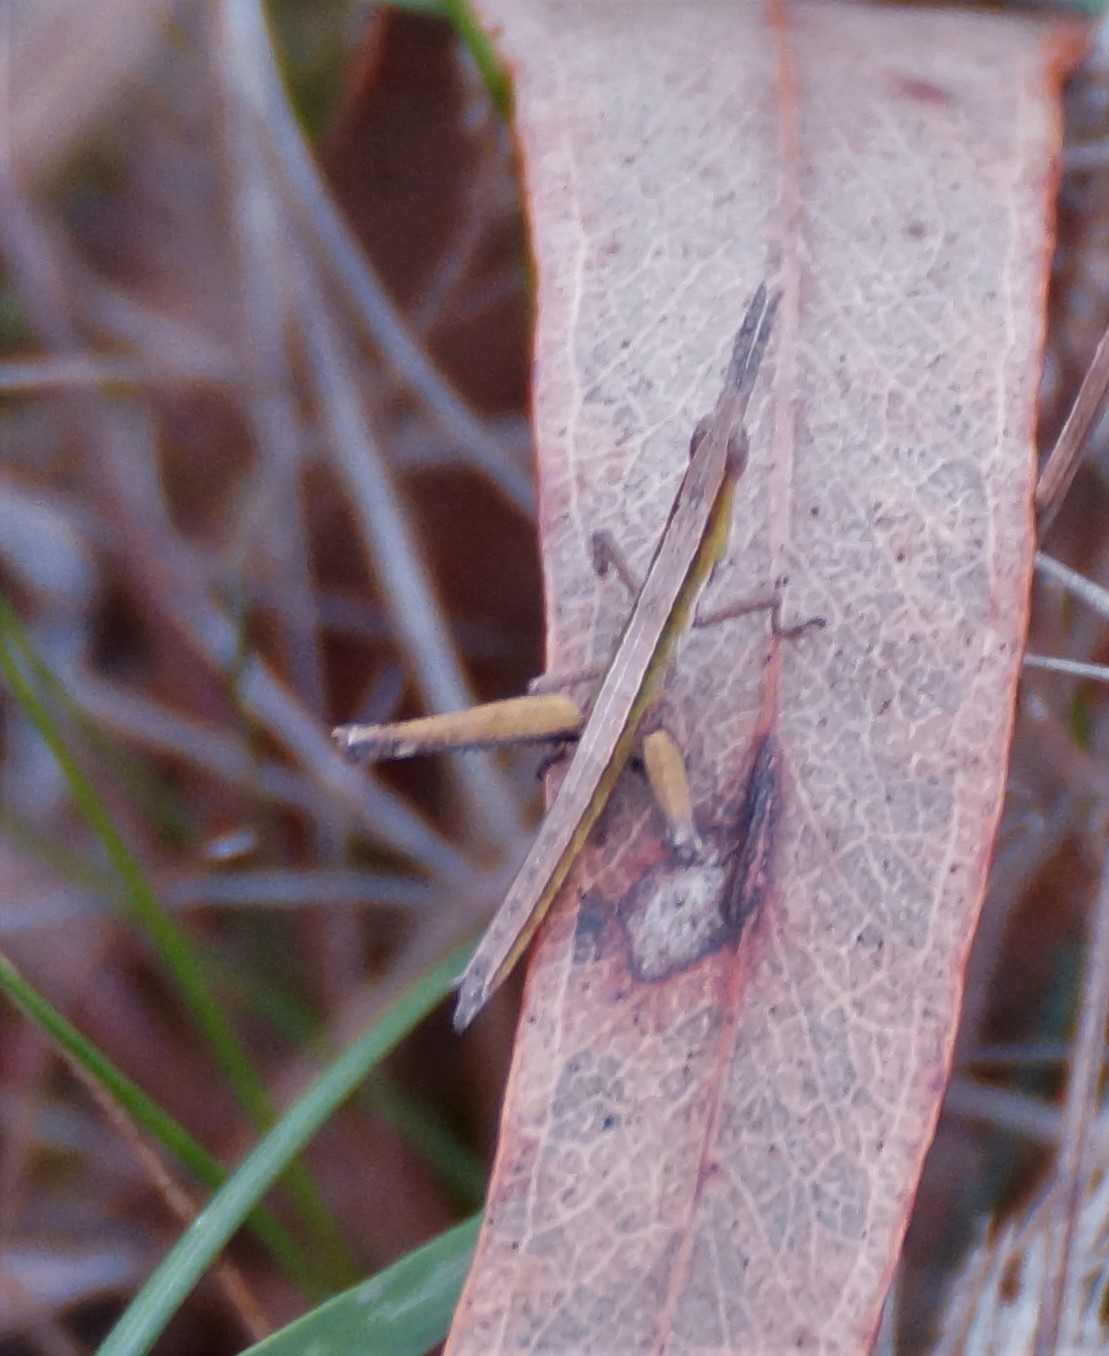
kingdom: Animalia
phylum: Arthropoda
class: Insecta
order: Orthoptera
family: Morabidae
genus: Vandiemenella
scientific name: Vandiemenella viatica
